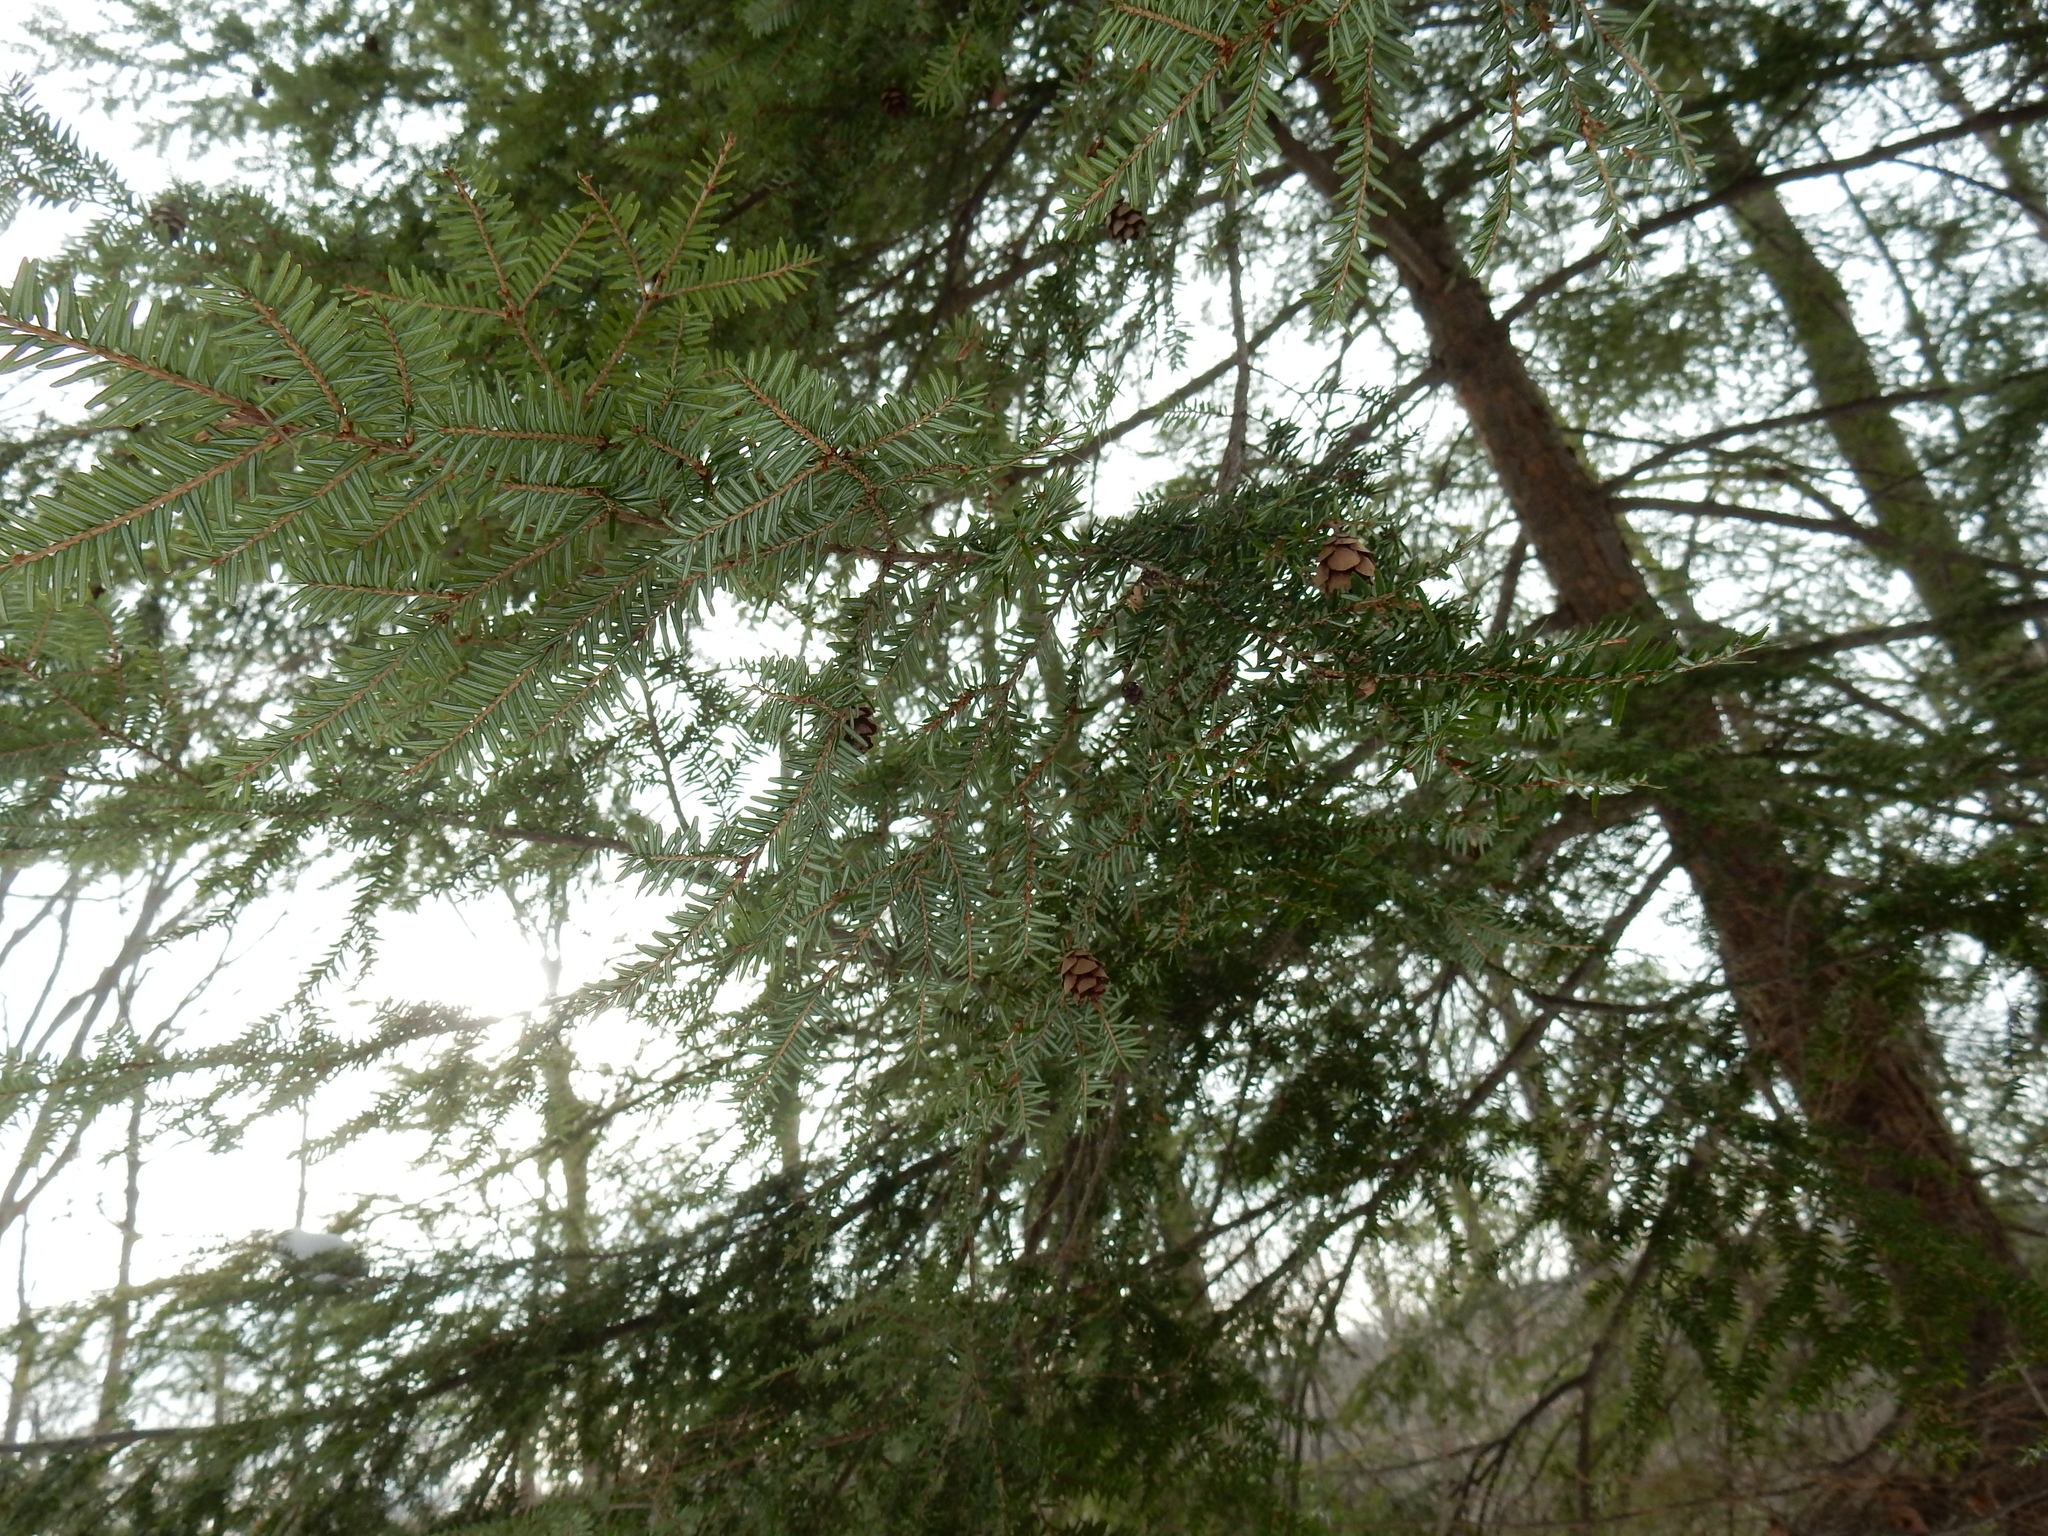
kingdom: Plantae
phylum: Tracheophyta
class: Pinopsida
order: Pinales
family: Pinaceae
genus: Tsuga
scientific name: Tsuga canadensis
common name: Eastern hemlock
